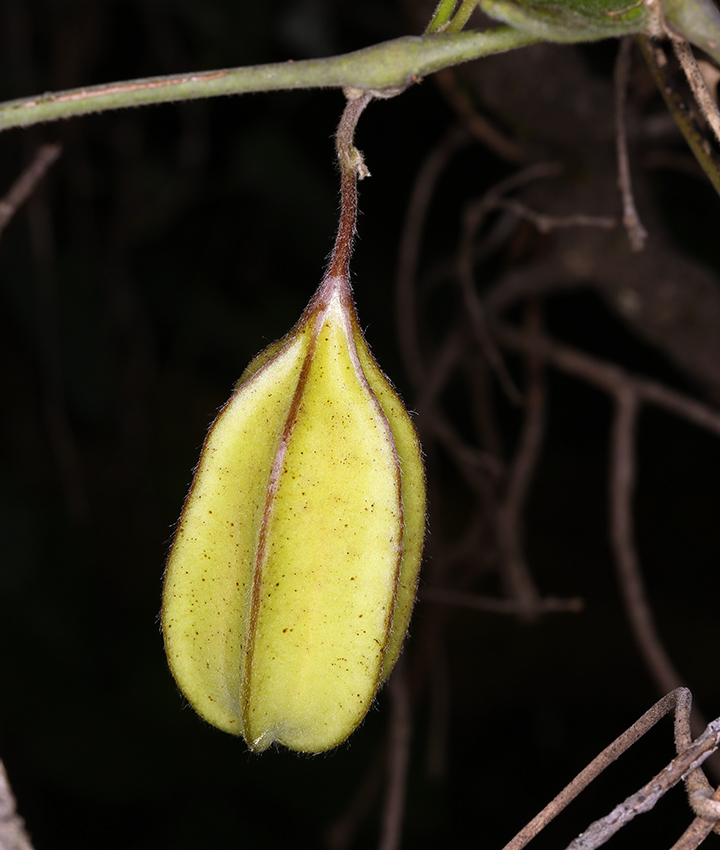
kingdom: Plantae
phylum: Tracheophyta
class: Magnoliopsida
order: Piperales
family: Aristolochiaceae
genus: Isotrema
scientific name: Isotrema californicum
